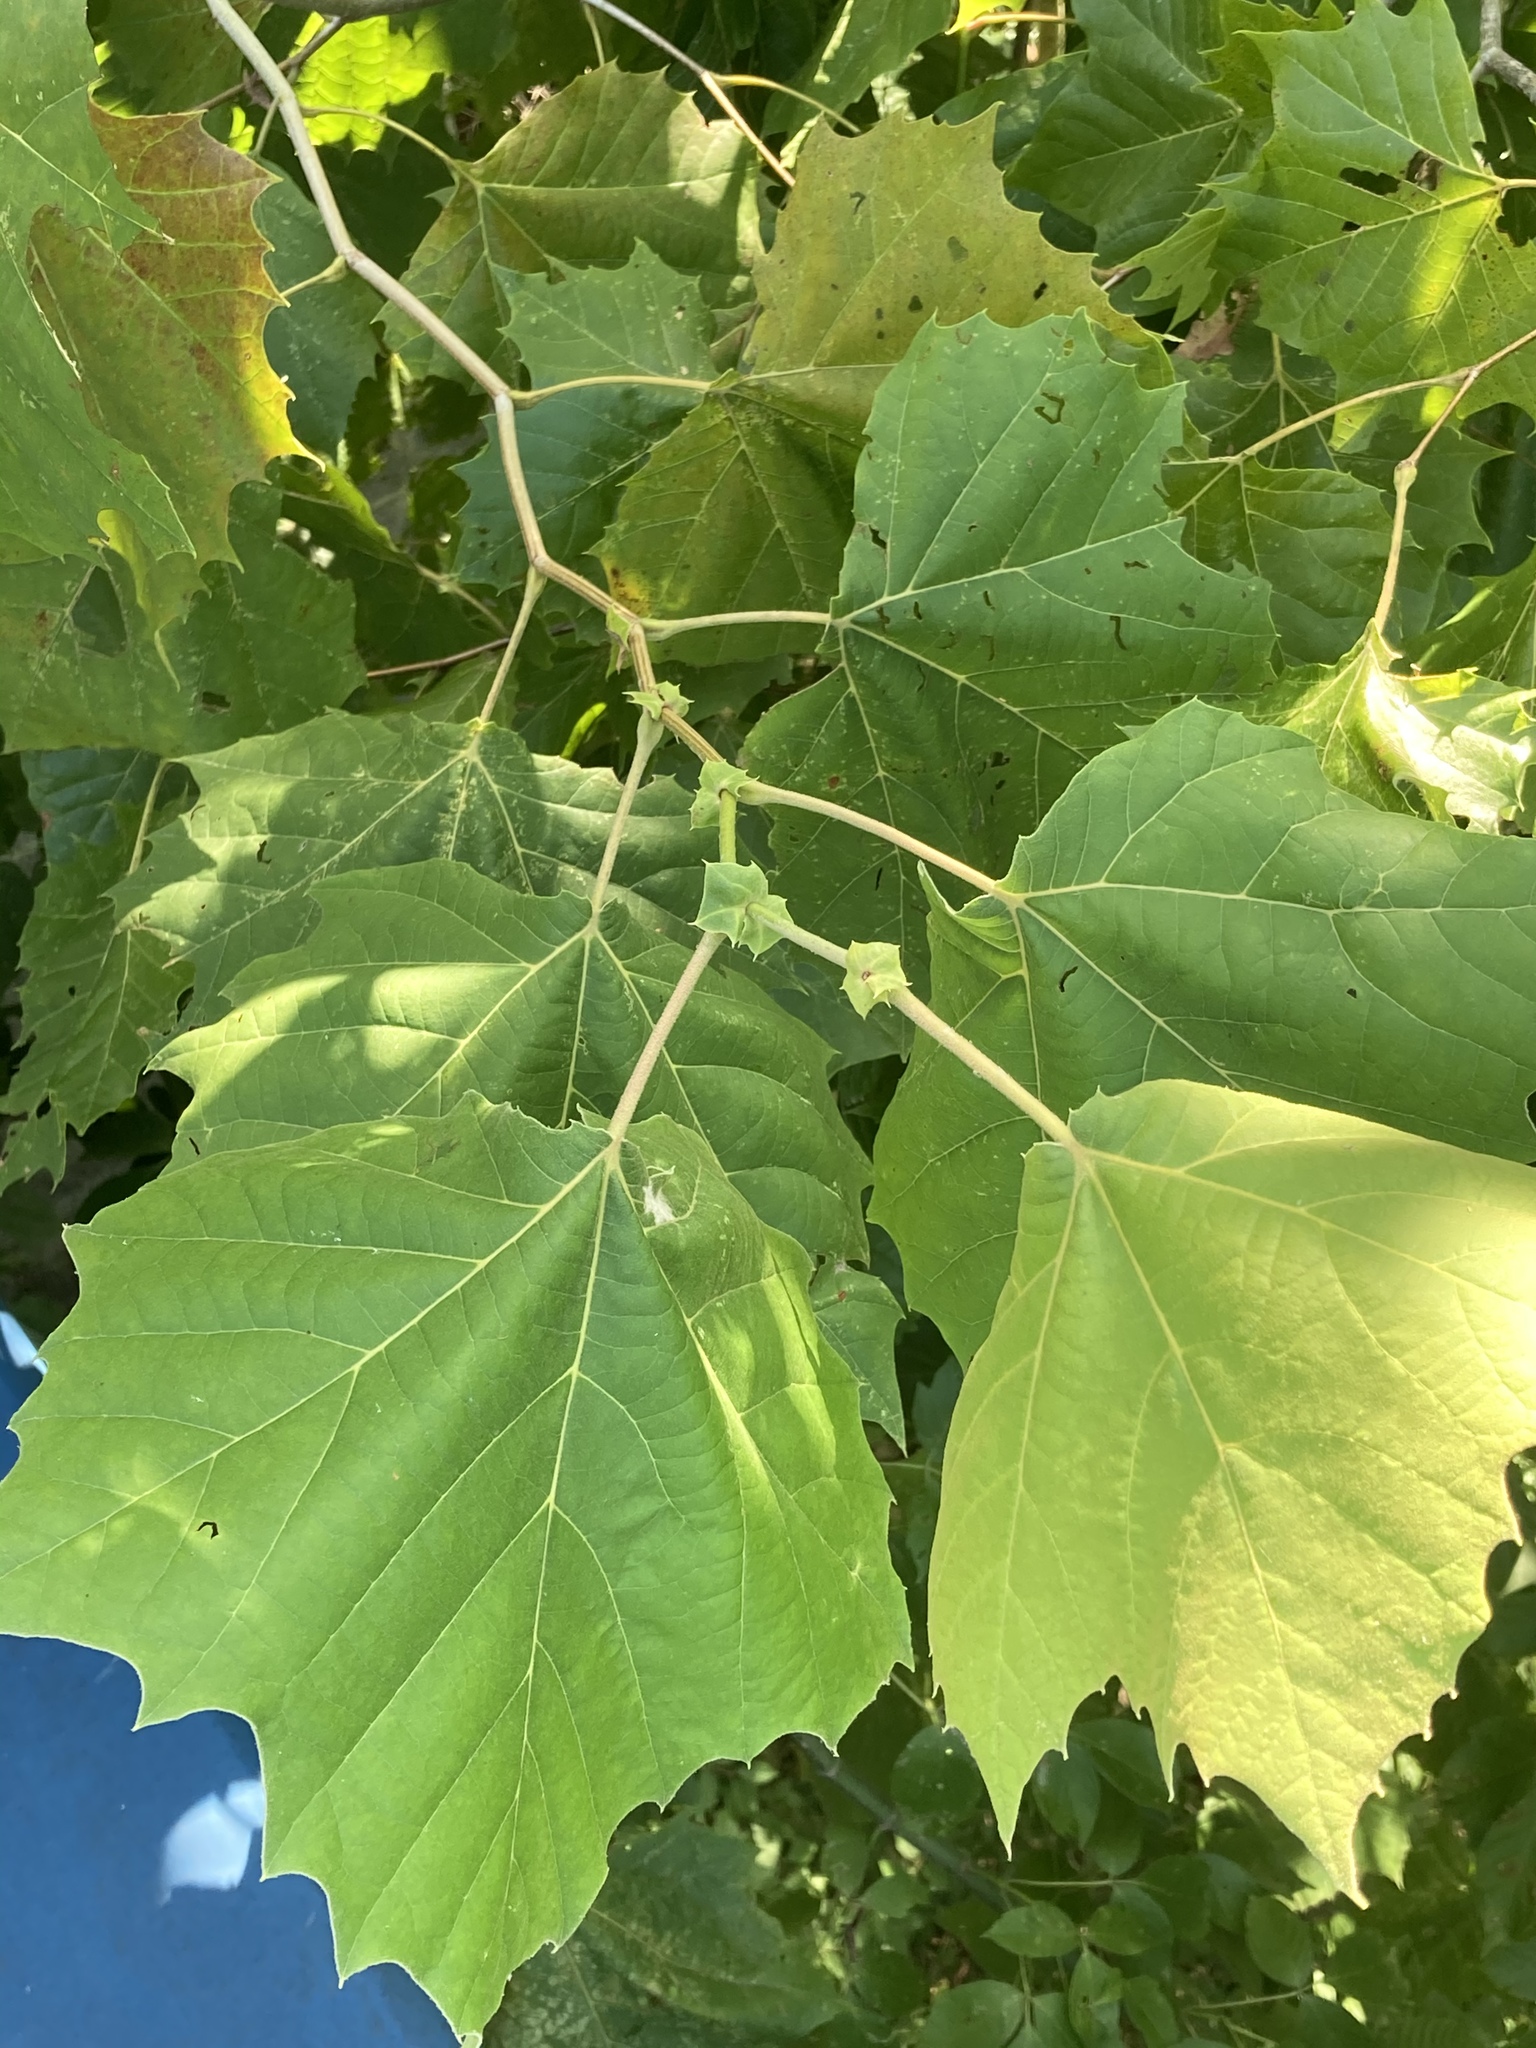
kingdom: Plantae
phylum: Tracheophyta
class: Magnoliopsida
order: Proteales
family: Platanaceae
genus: Platanus
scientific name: Platanus occidentalis
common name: American sycamore
